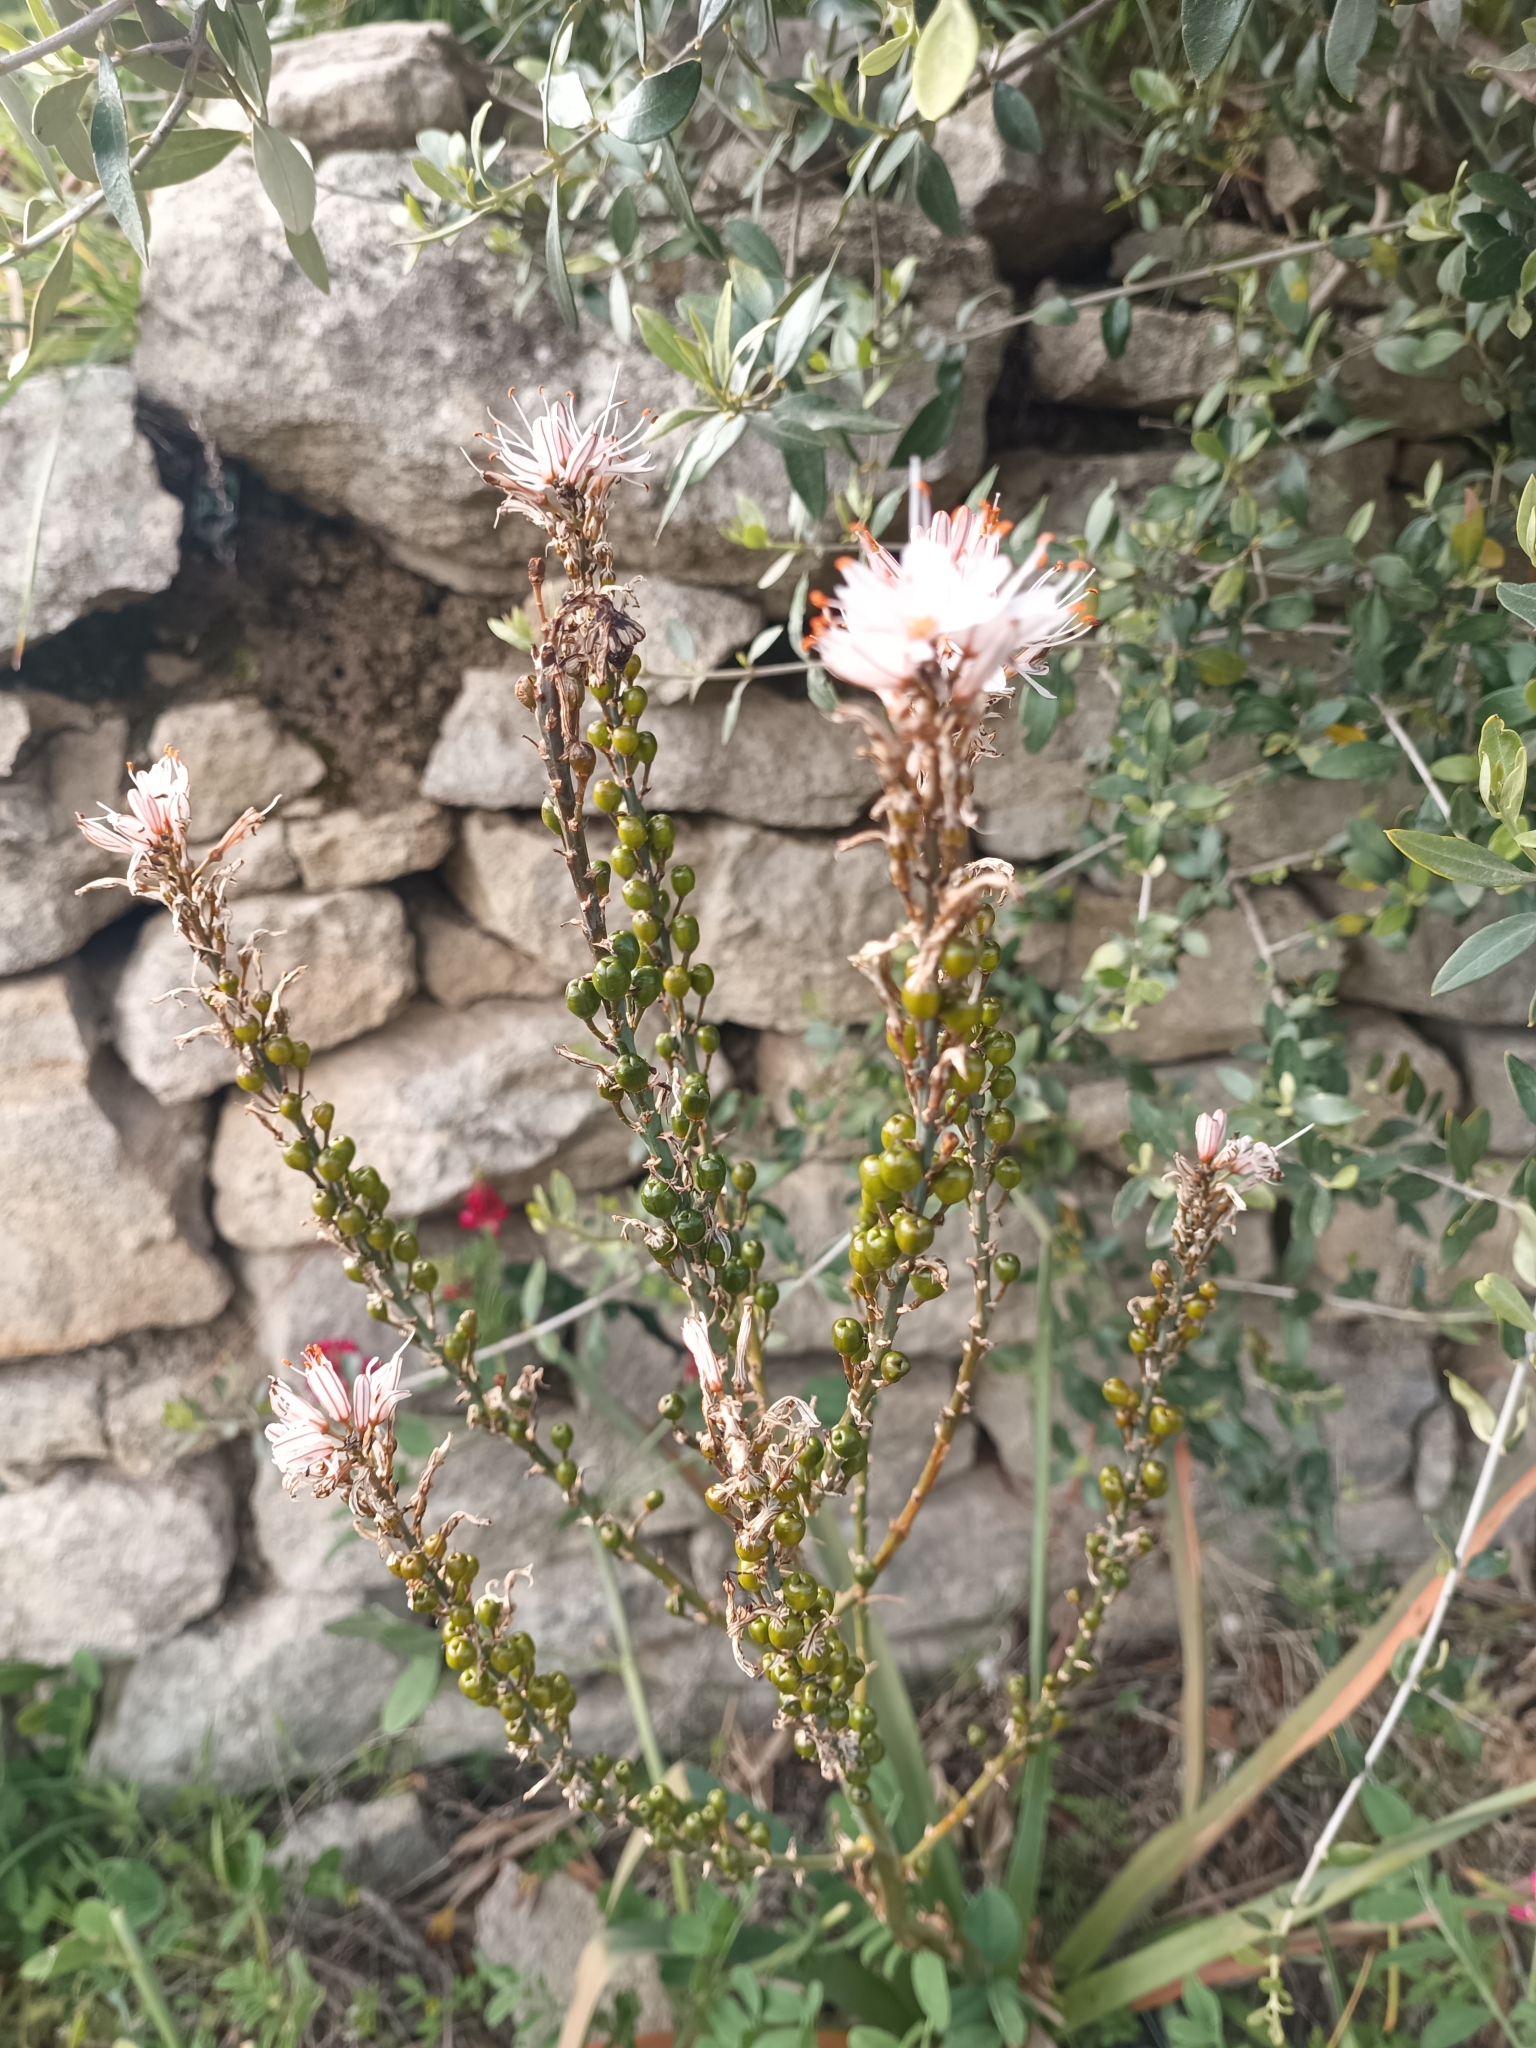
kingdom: Plantae
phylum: Tracheophyta
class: Liliopsida
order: Asparagales
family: Asphodelaceae
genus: Asphodelus
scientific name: Asphodelus ramosus
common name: Silverrod
